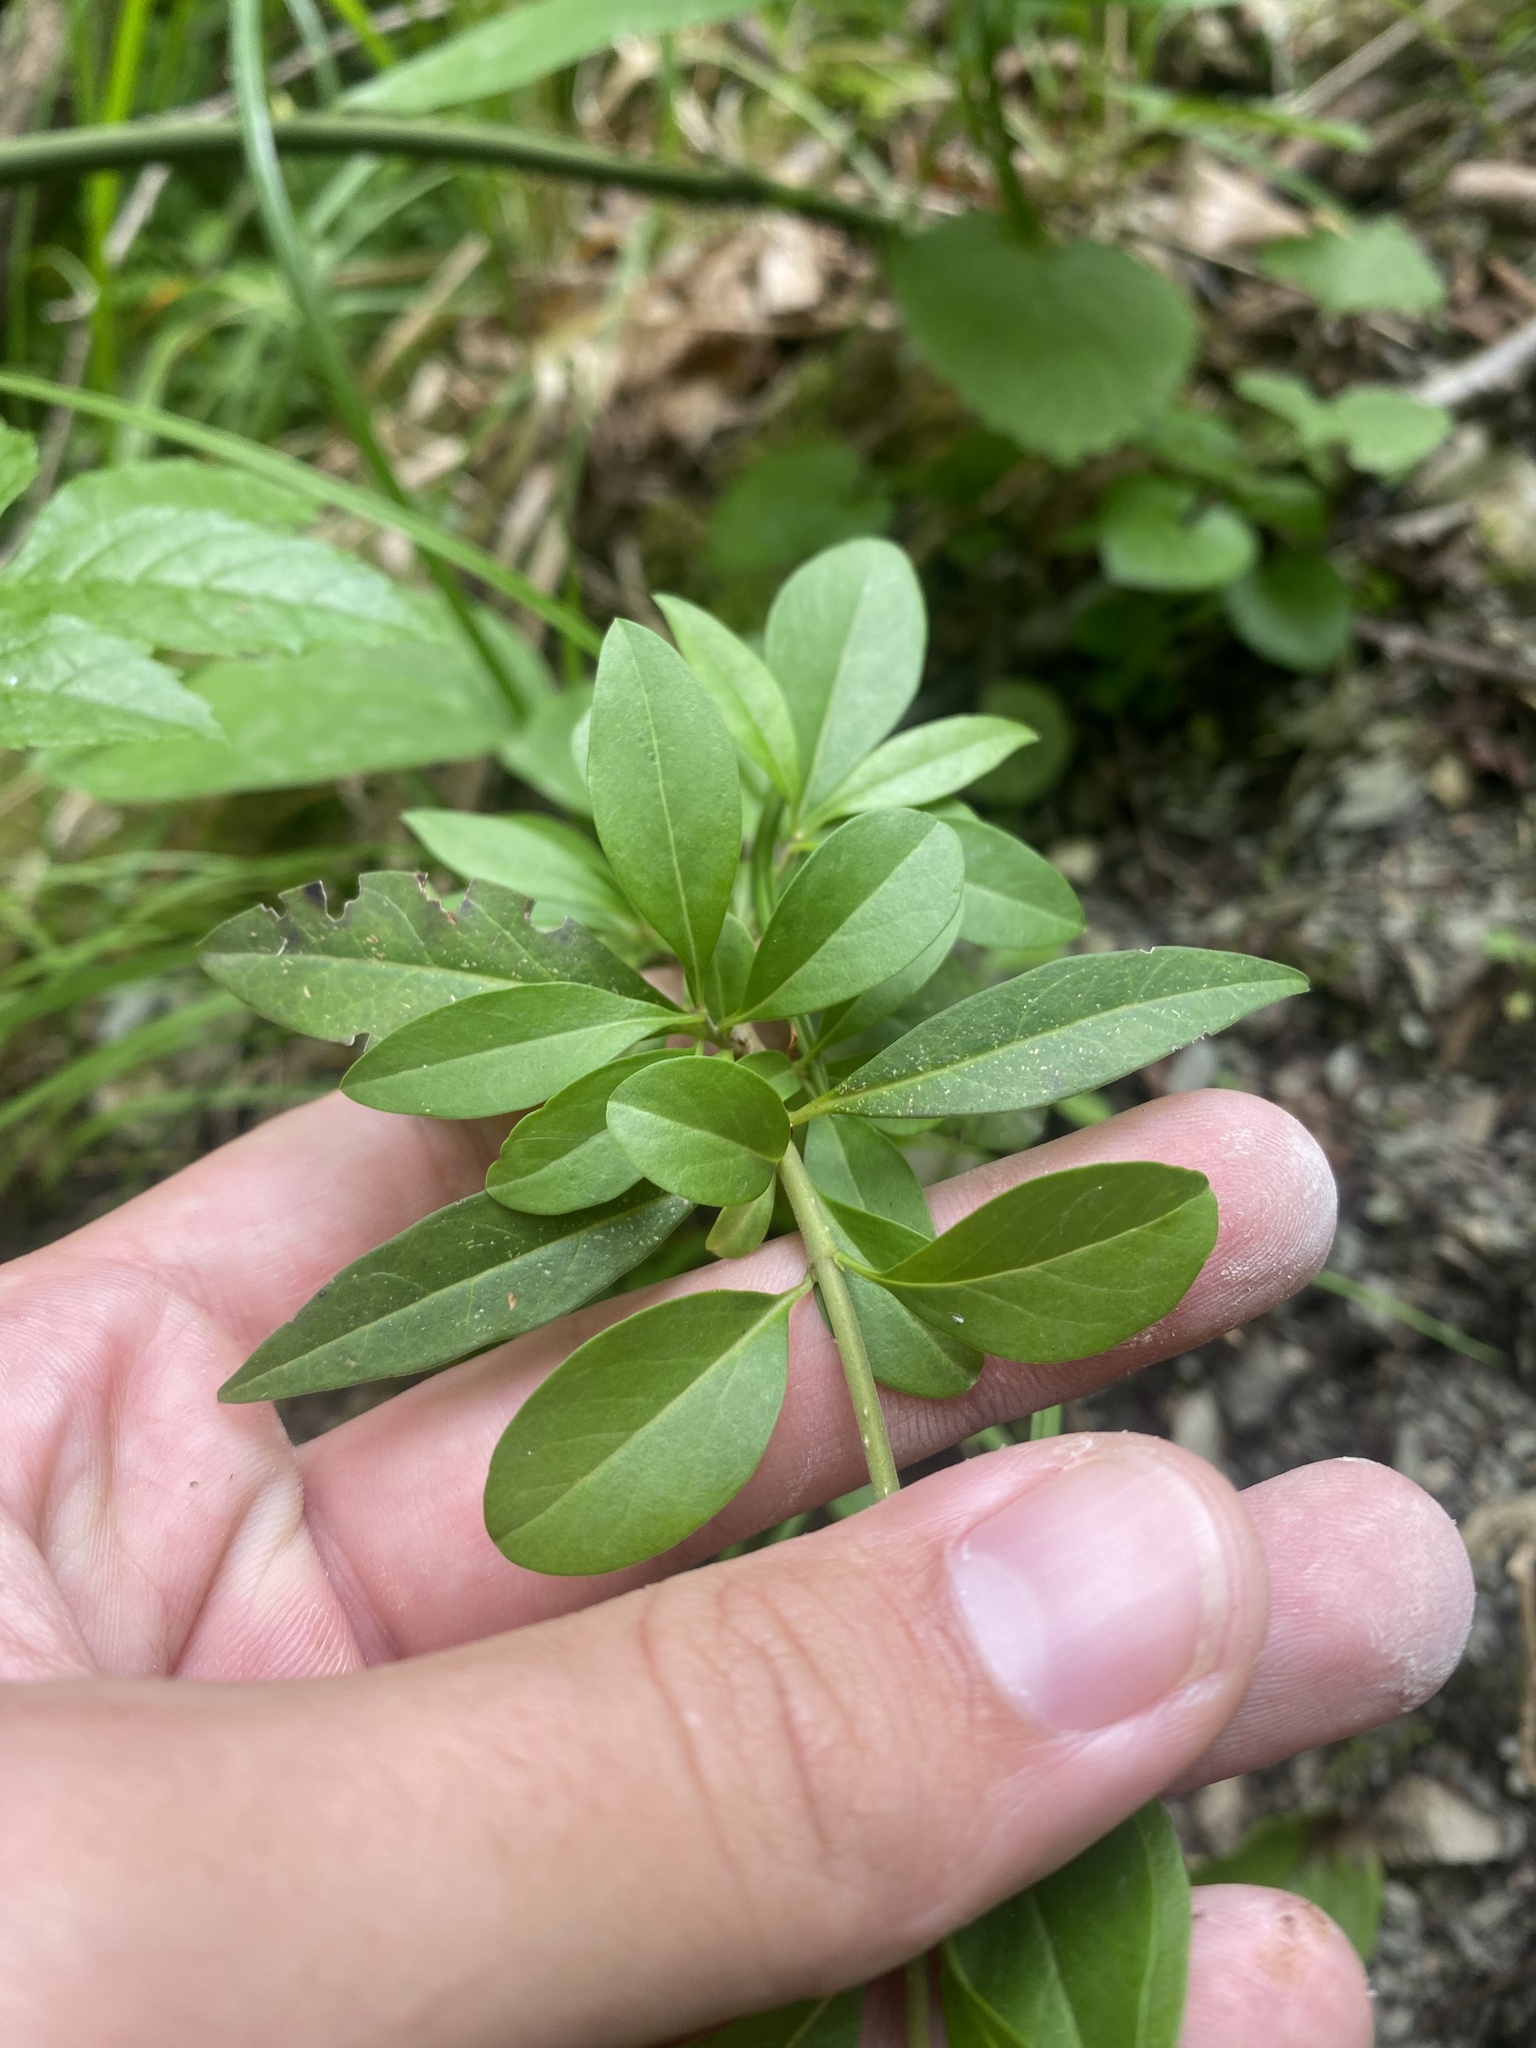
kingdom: Plantae
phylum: Tracheophyta
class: Magnoliopsida
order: Lamiales
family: Oleaceae
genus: Ligustrum
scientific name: Ligustrum vulgare
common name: Wild privet
